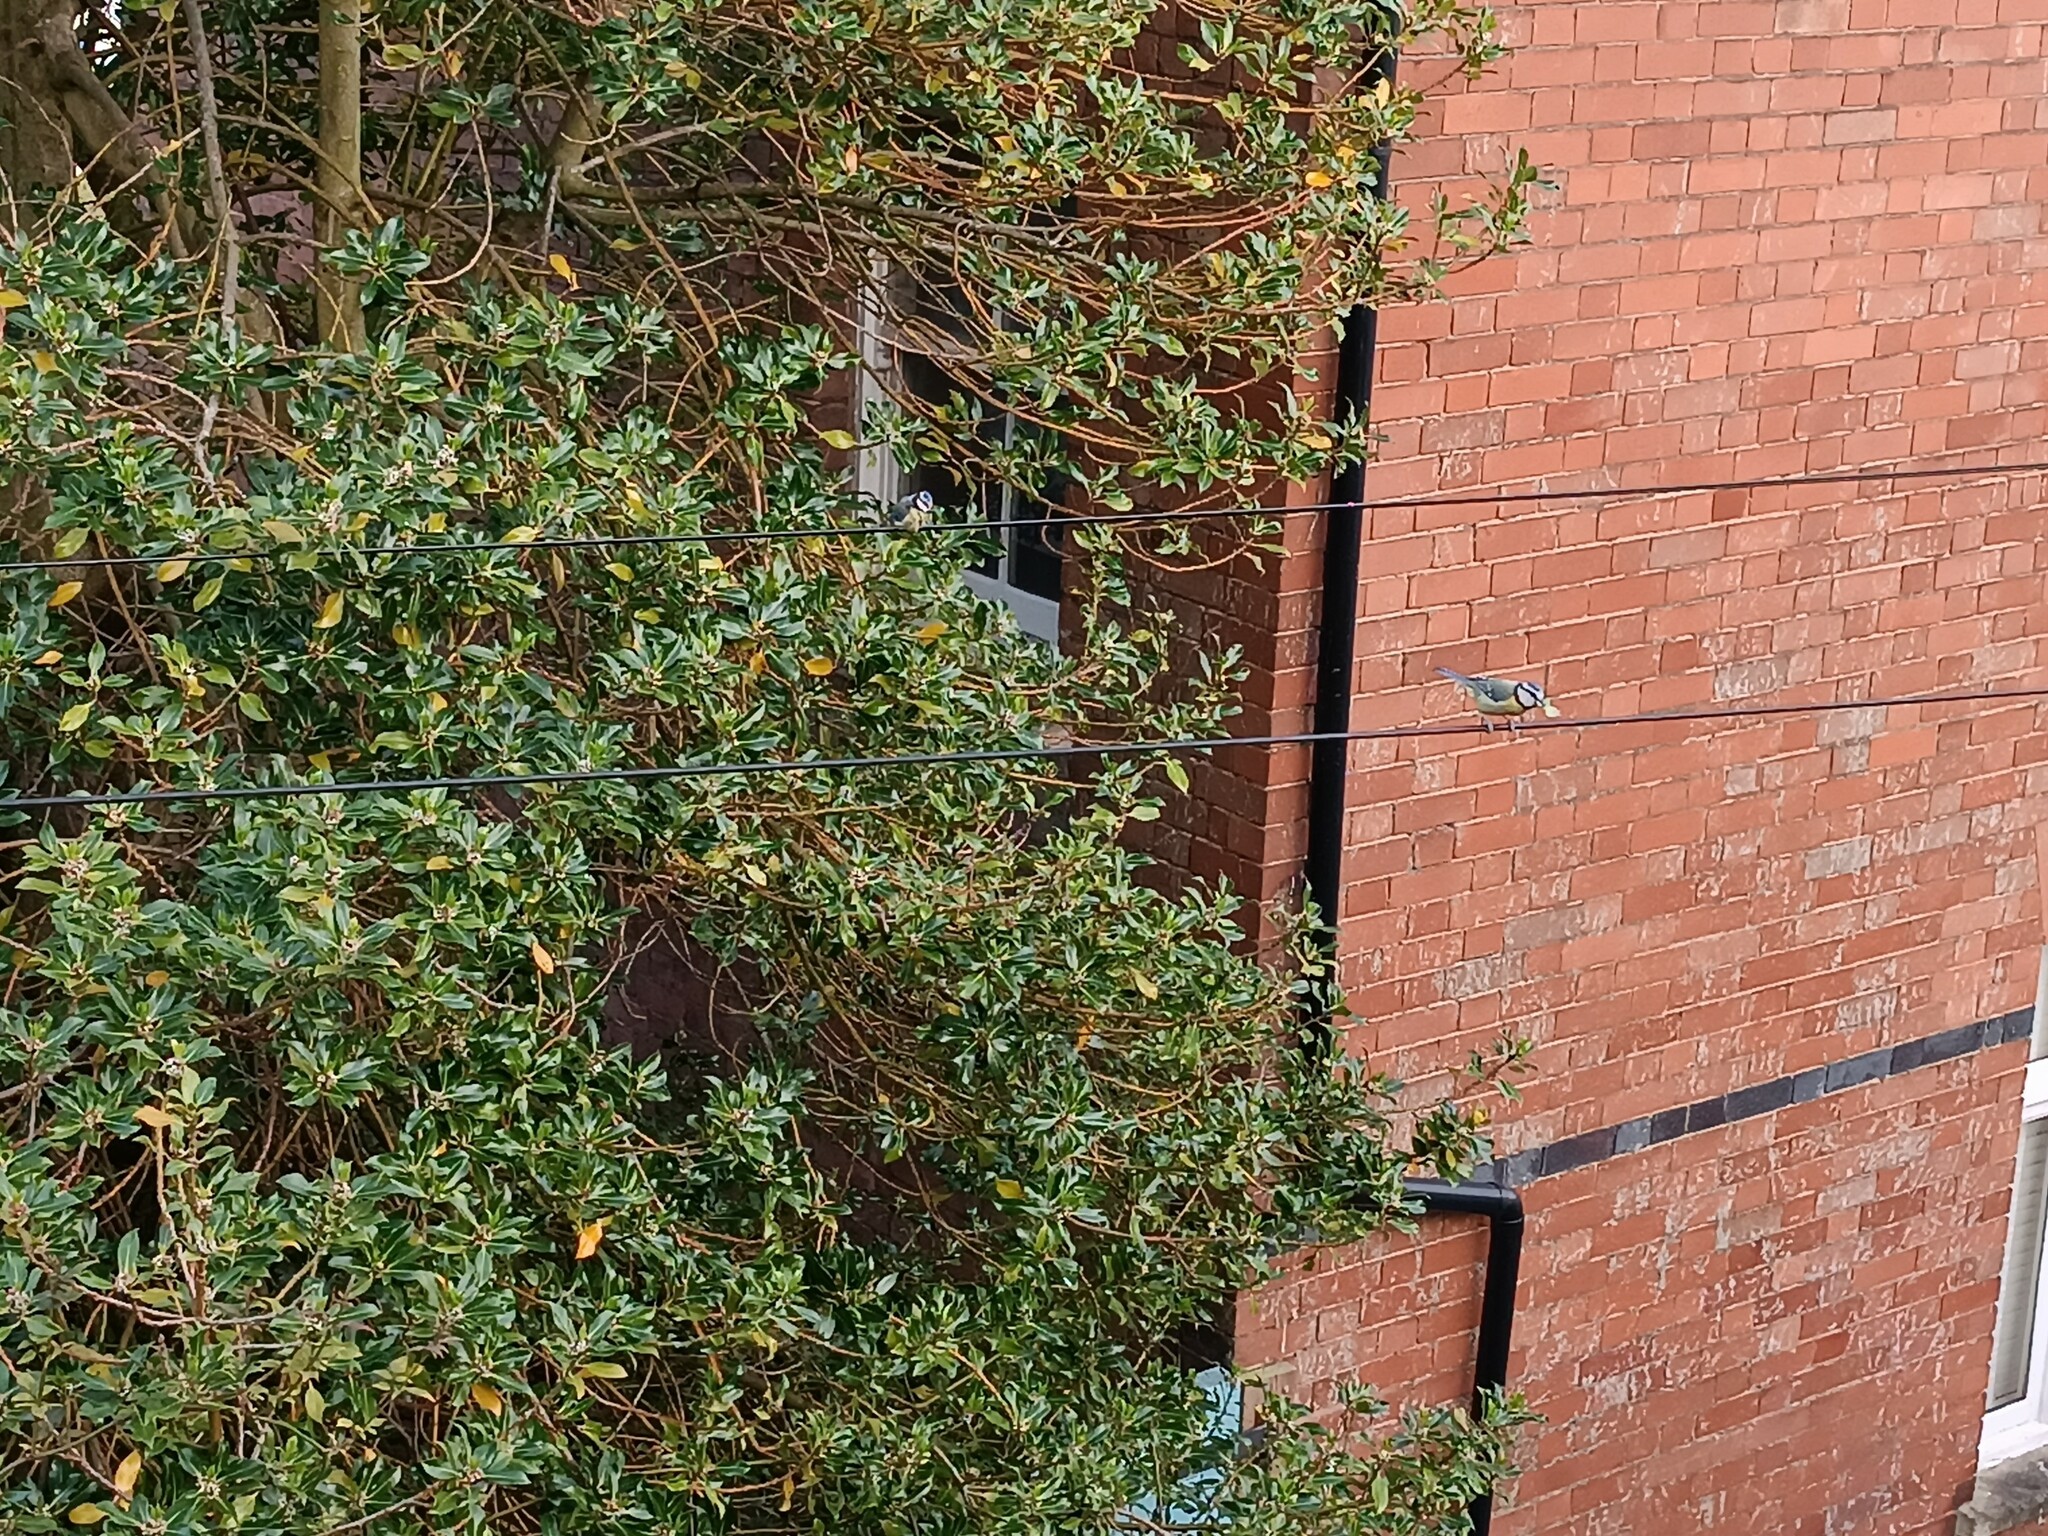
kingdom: Animalia
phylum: Chordata
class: Aves
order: Passeriformes
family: Paridae
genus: Cyanistes
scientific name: Cyanistes caeruleus
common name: Eurasian blue tit
